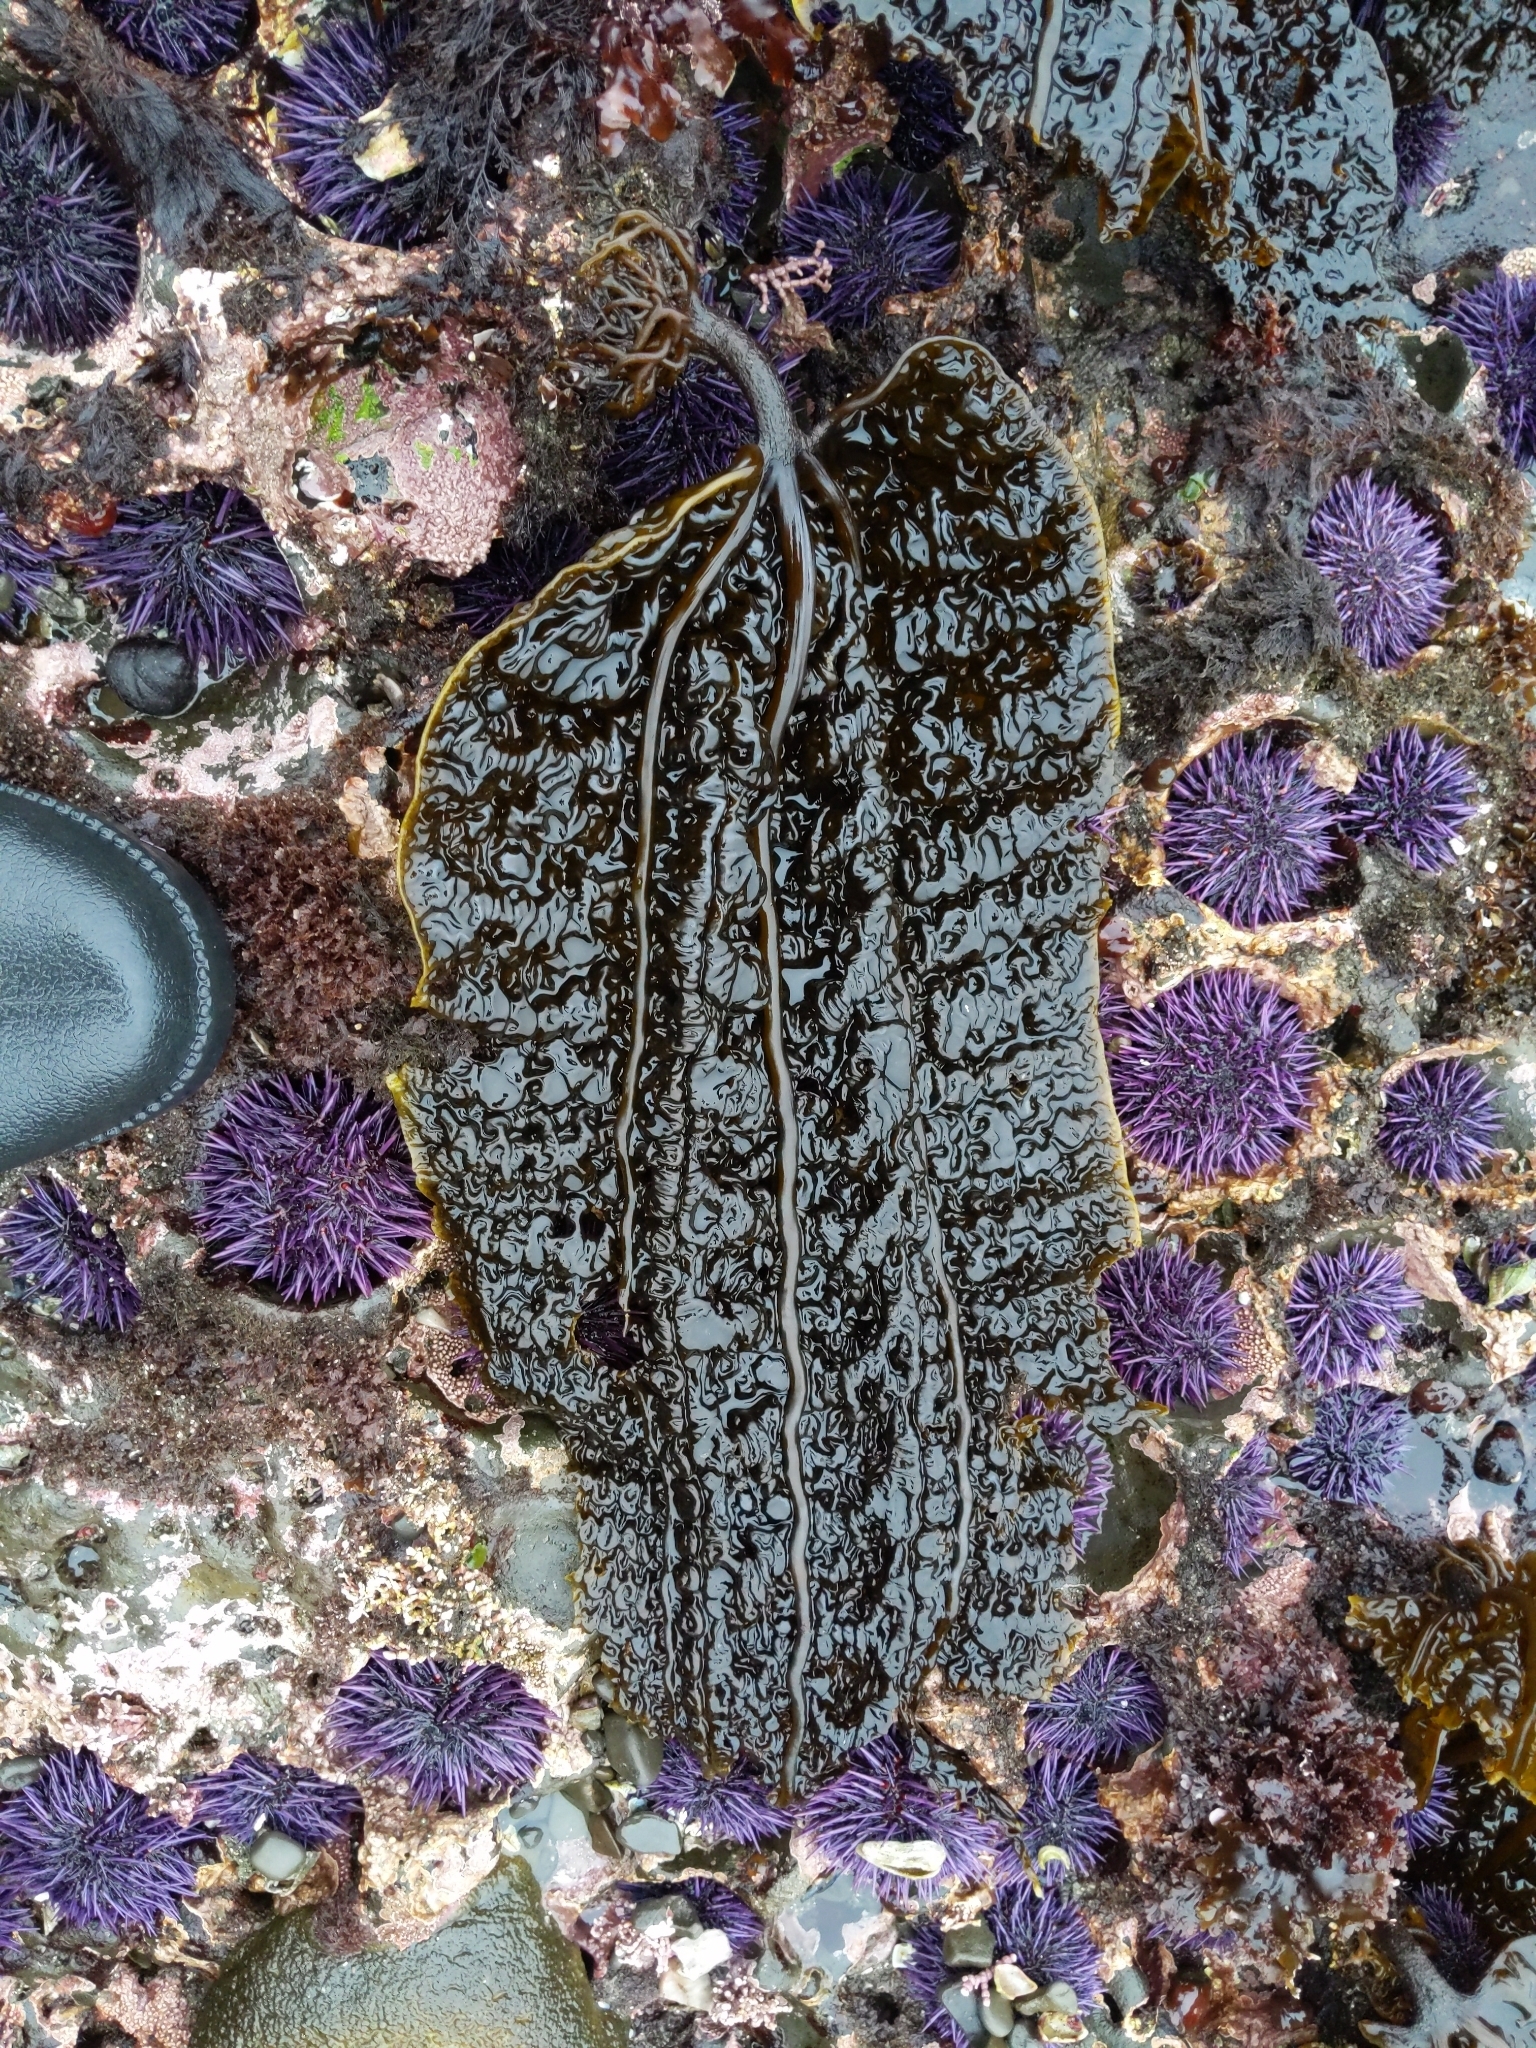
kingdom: Chromista
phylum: Ochrophyta
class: Phaeophyceae
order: Laminariales
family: Costariaceae
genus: Costaria
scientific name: Costaria costata
